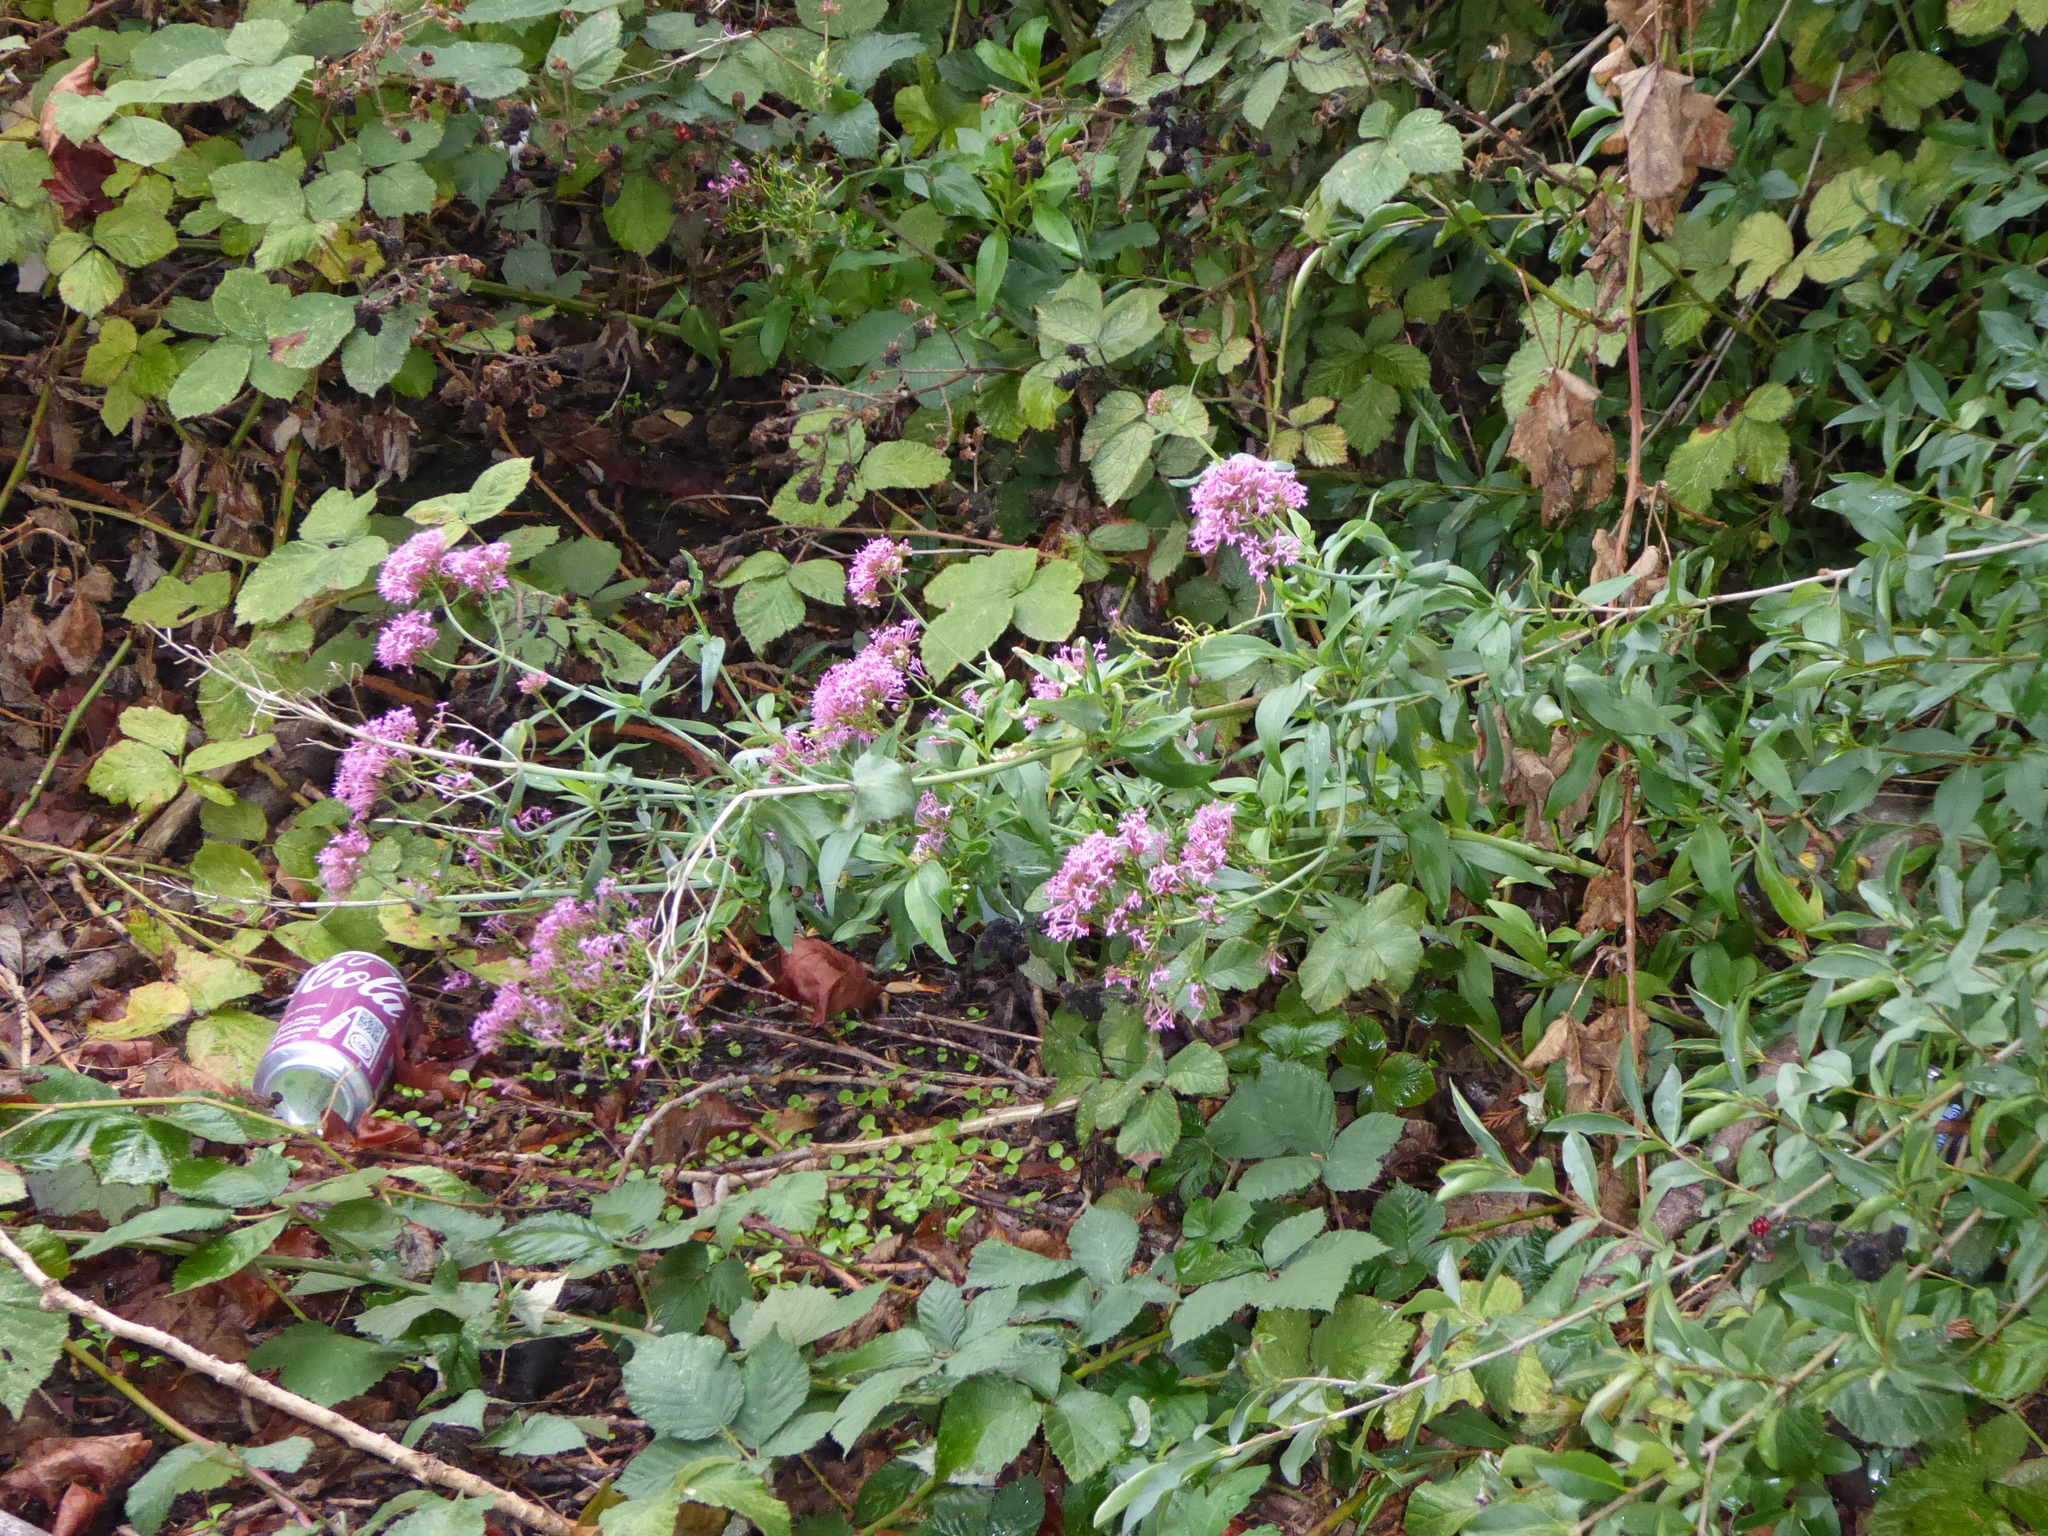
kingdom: Plantae
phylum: Tracheophyta
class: Magnoliopsida
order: Dipsacales
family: Caprifoliaceae
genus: Centranthus
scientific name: Centranthus ruber
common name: Red valerian
